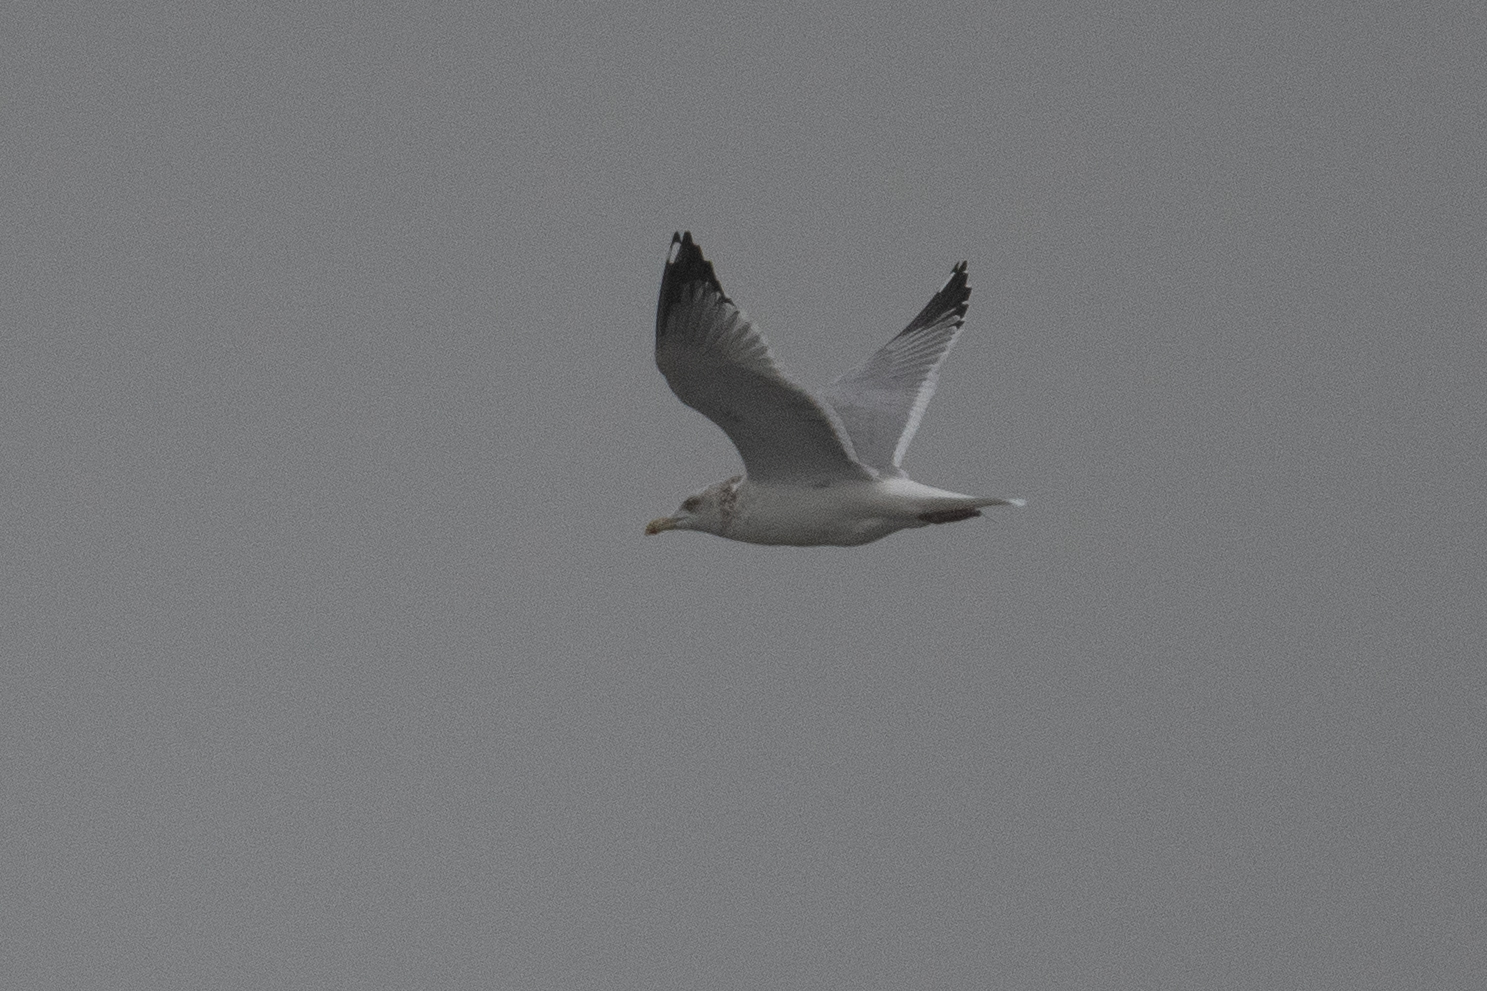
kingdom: Animalia
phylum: Chordata
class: Aves
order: Charadriiformes
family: Laridae
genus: Larus
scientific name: Larus argentatus
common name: Herring gull
